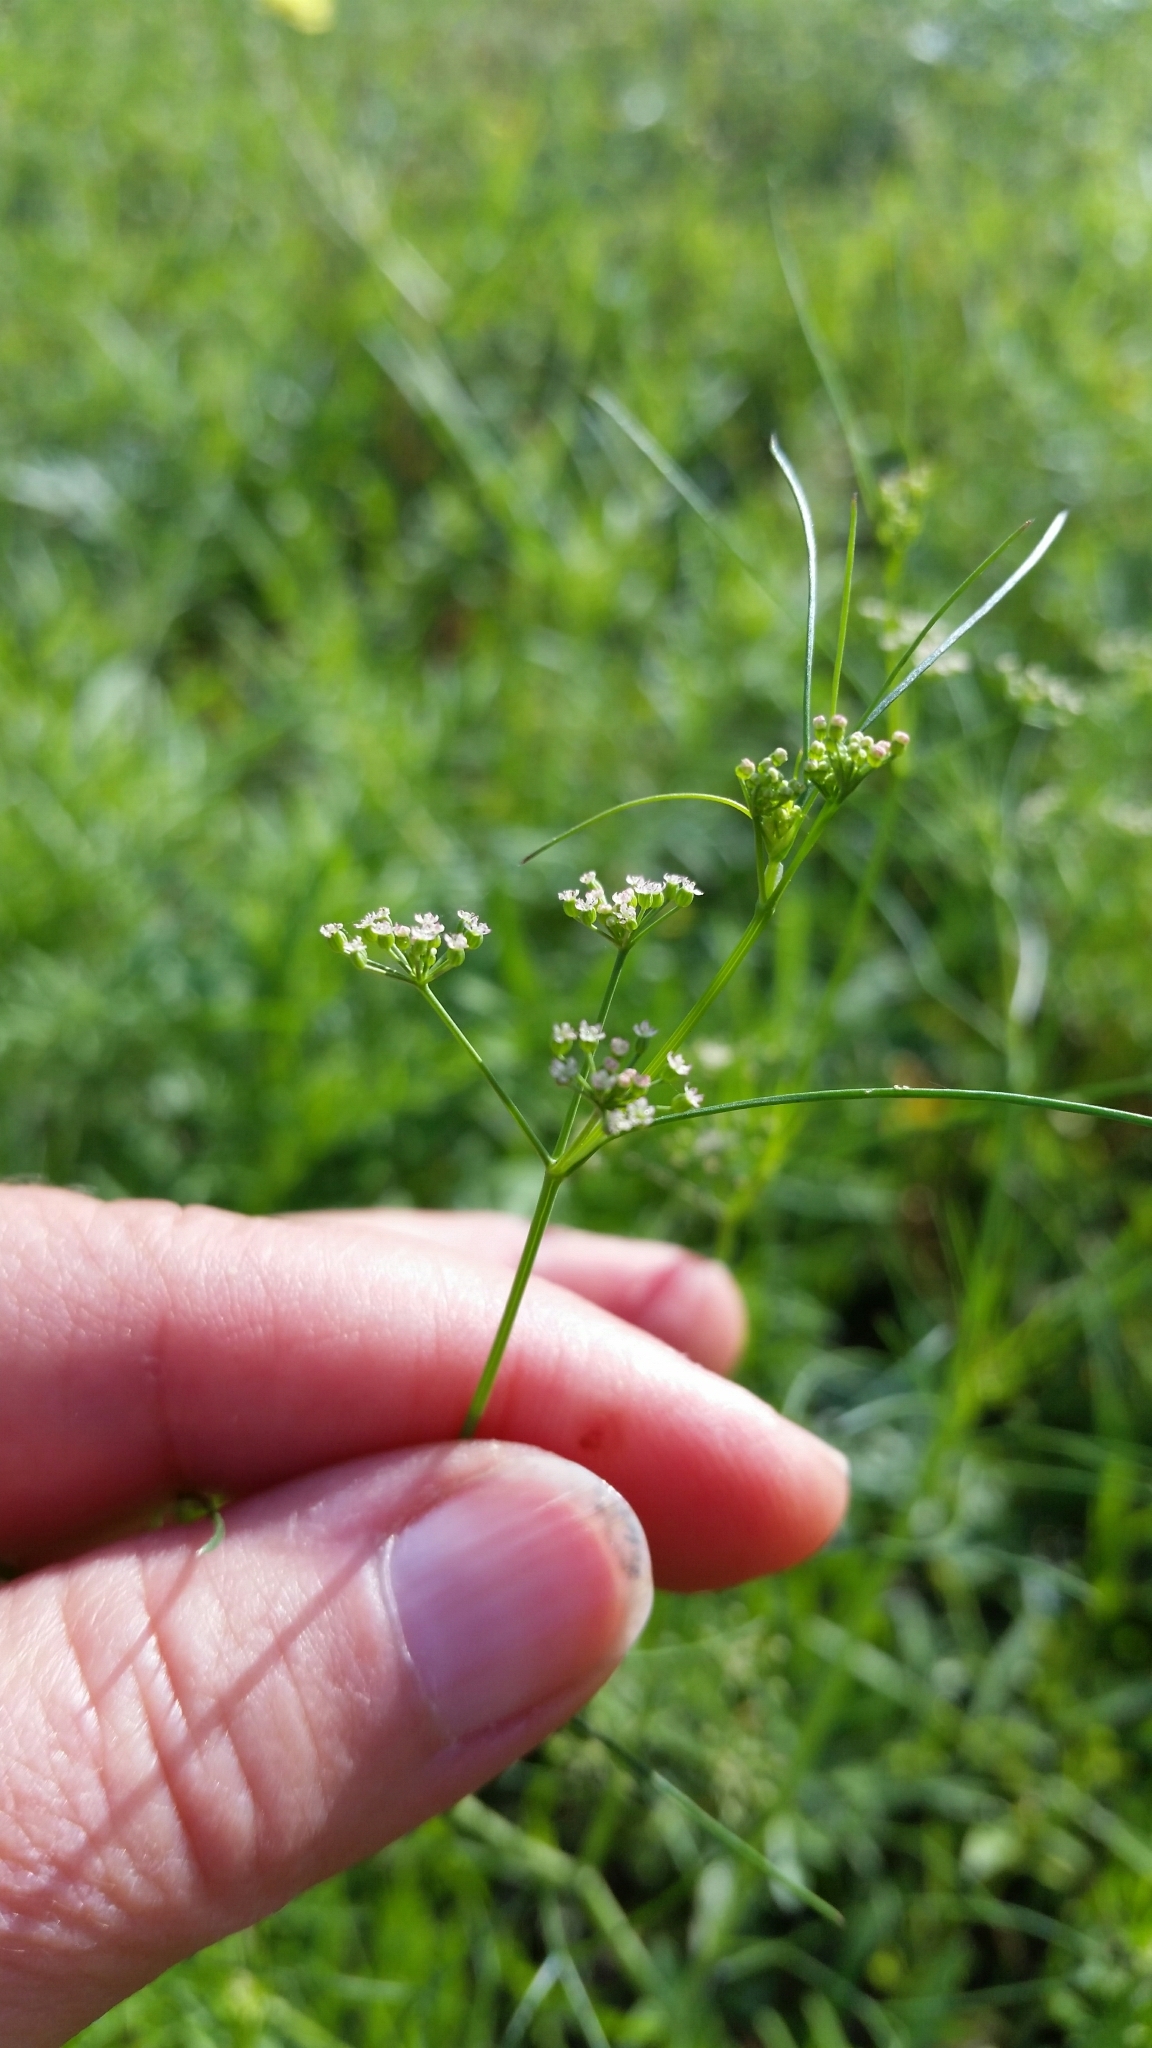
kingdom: Plantae
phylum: Tracheophyta
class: Magnoliopsida
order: Apiales
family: Apiaceae
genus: Limnosciadium
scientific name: Limnosciadium pinnatum
